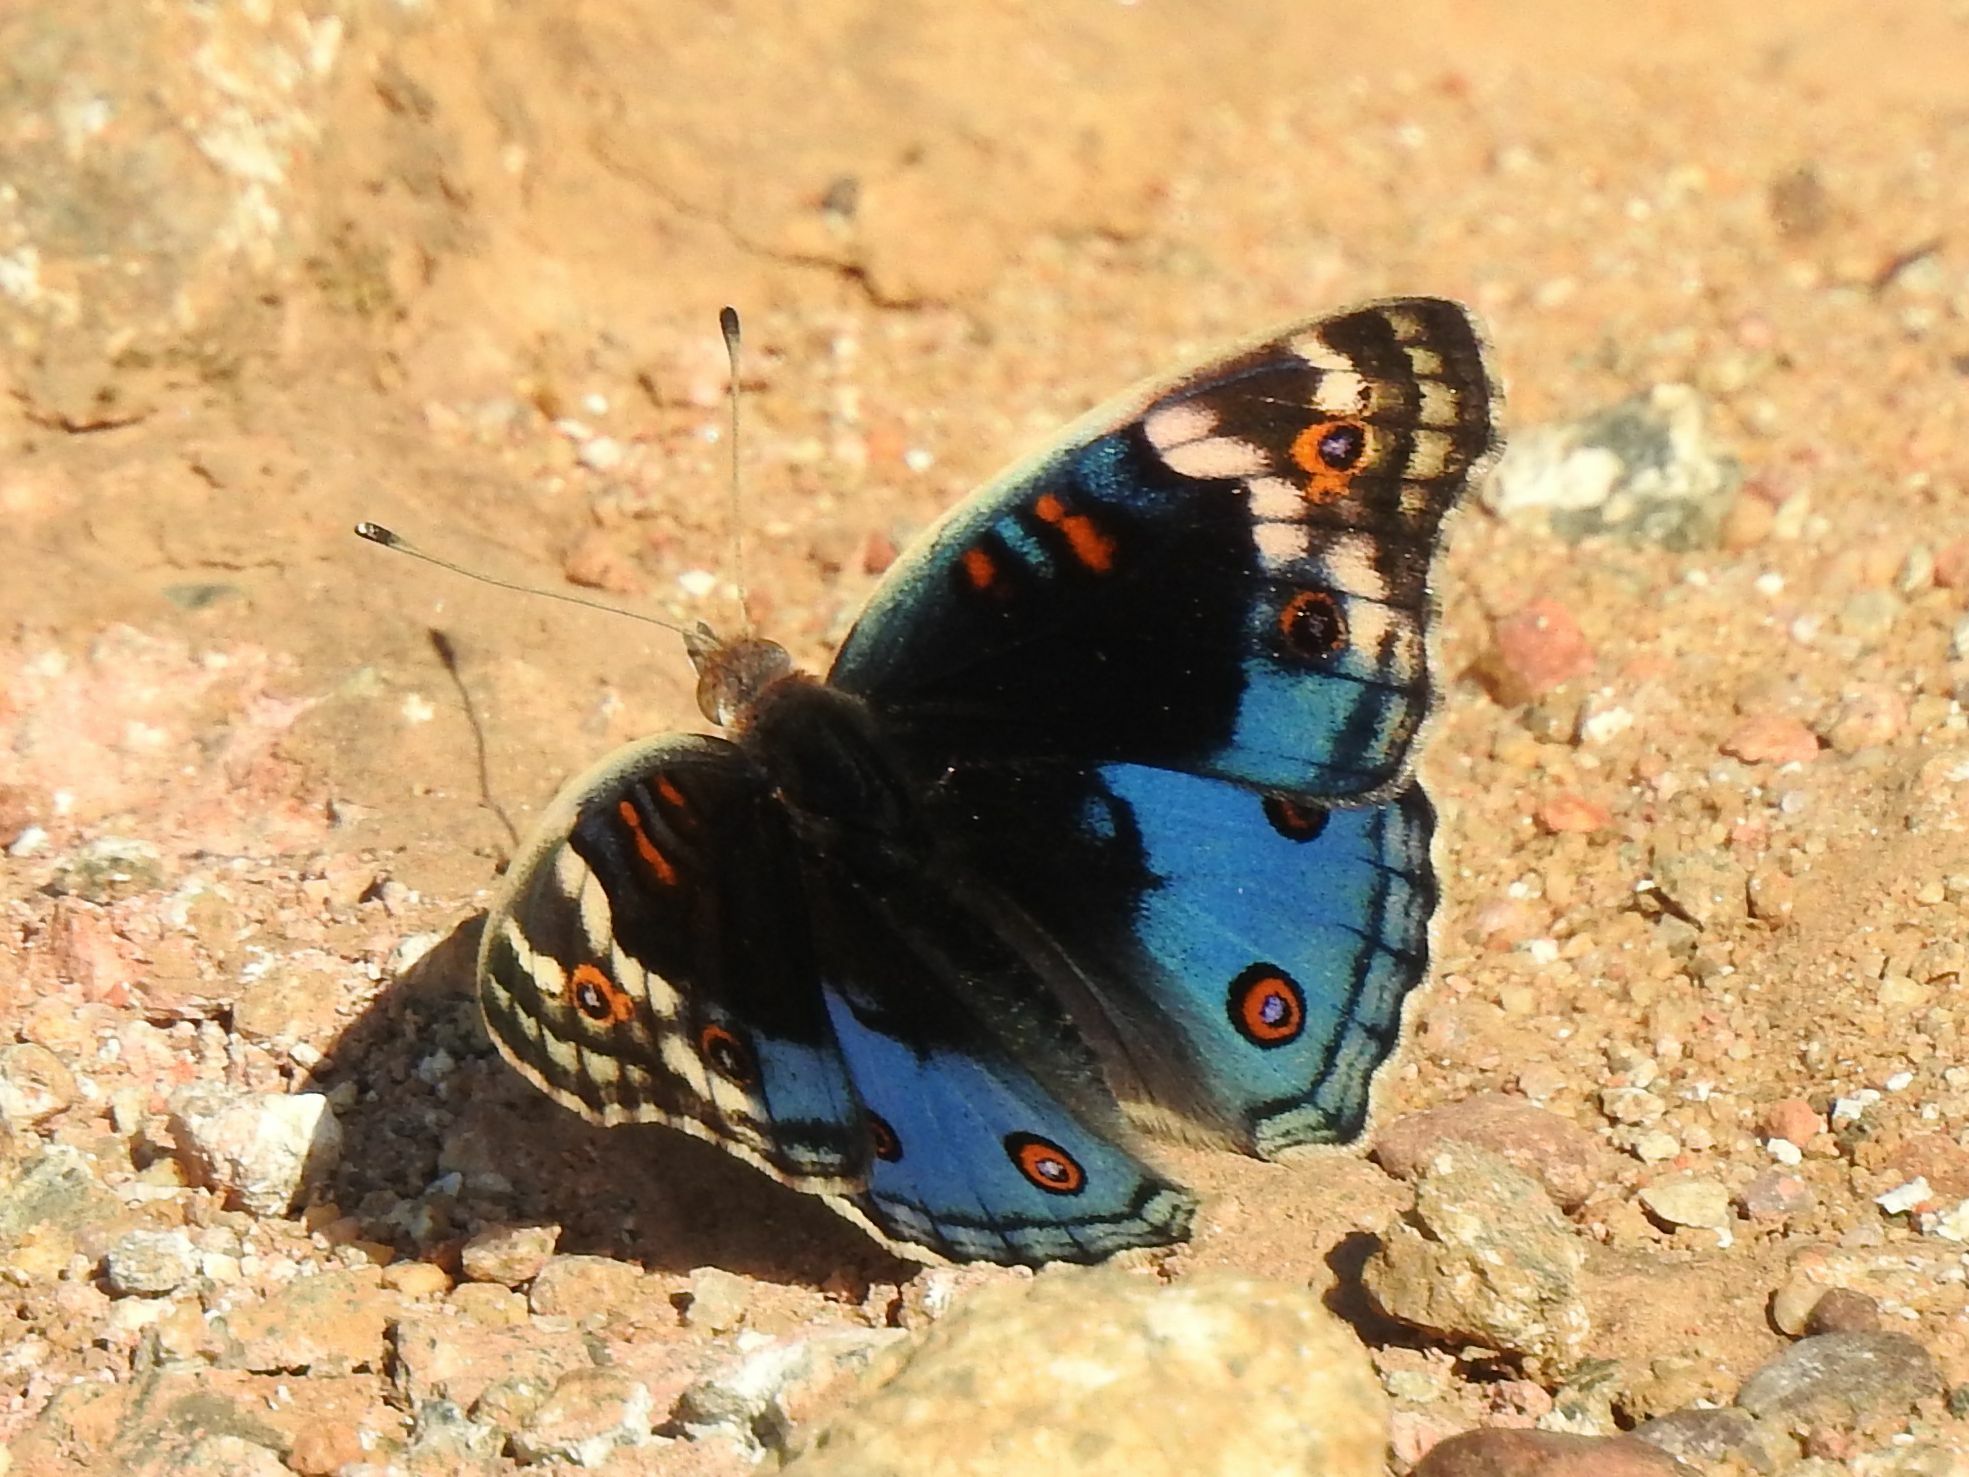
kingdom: Animalia
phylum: Arthropoda
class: Insecta
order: Lepidoptera
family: Nymphalidae
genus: Junonia
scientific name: Junonia orithya
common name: Blue pansy
